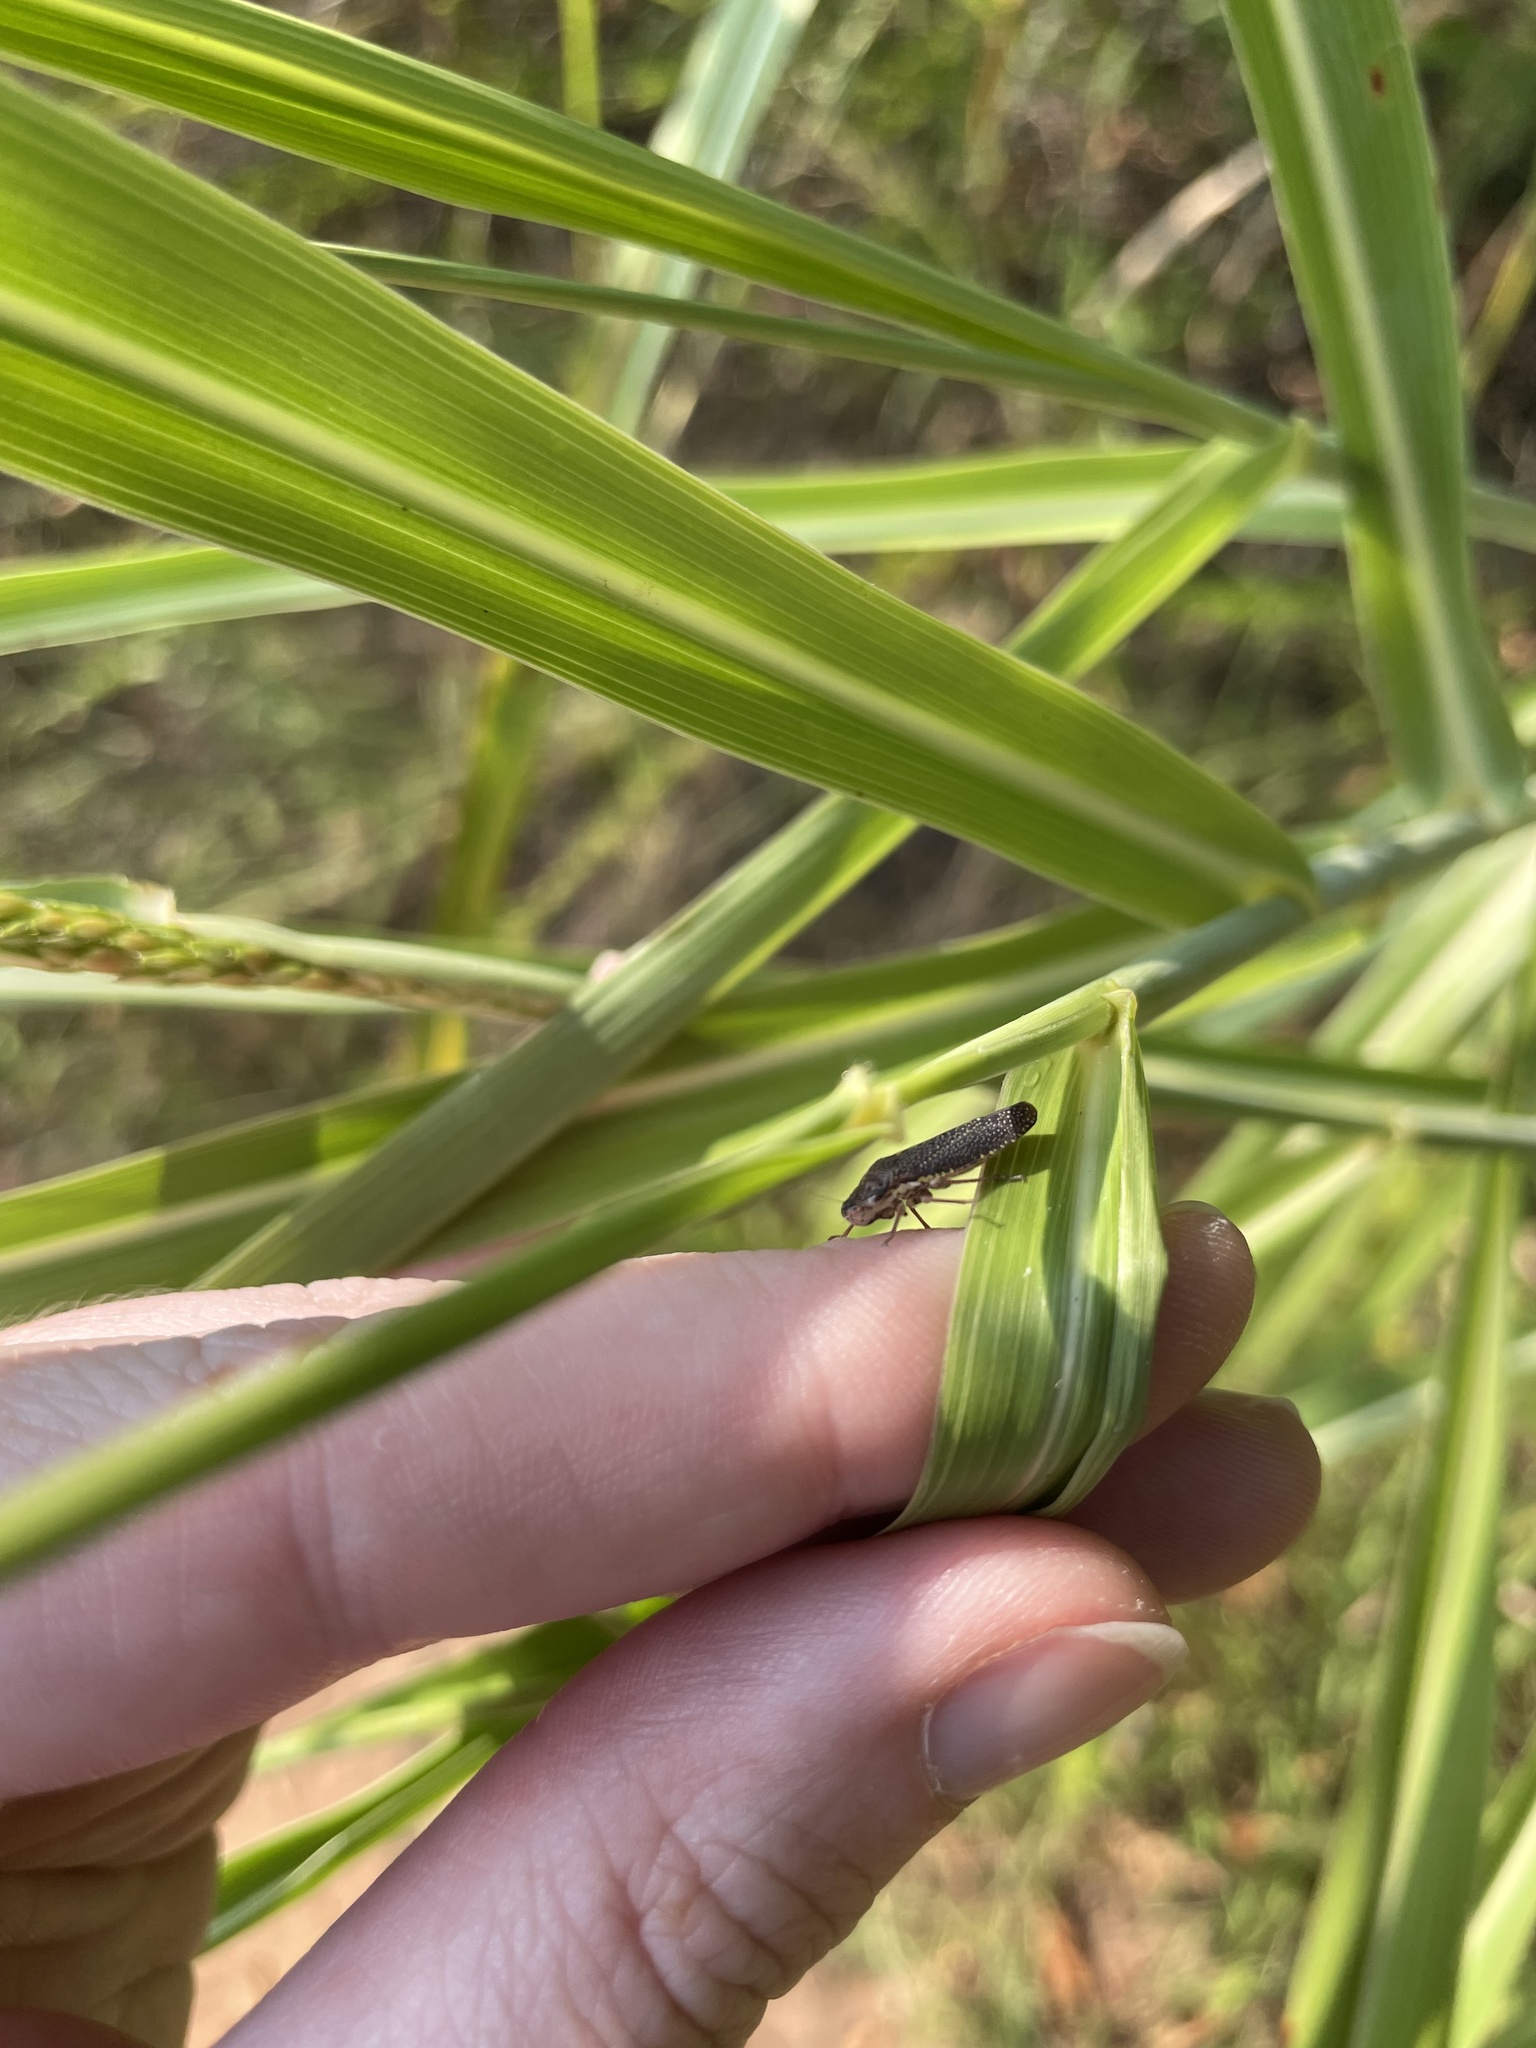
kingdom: Animalia
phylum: Arthropoda
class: Insecta
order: Hemiptera
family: Cicadellidae
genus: Paraulacizes
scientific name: Paraulacizes irrorata
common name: Speckled sharpshooter
